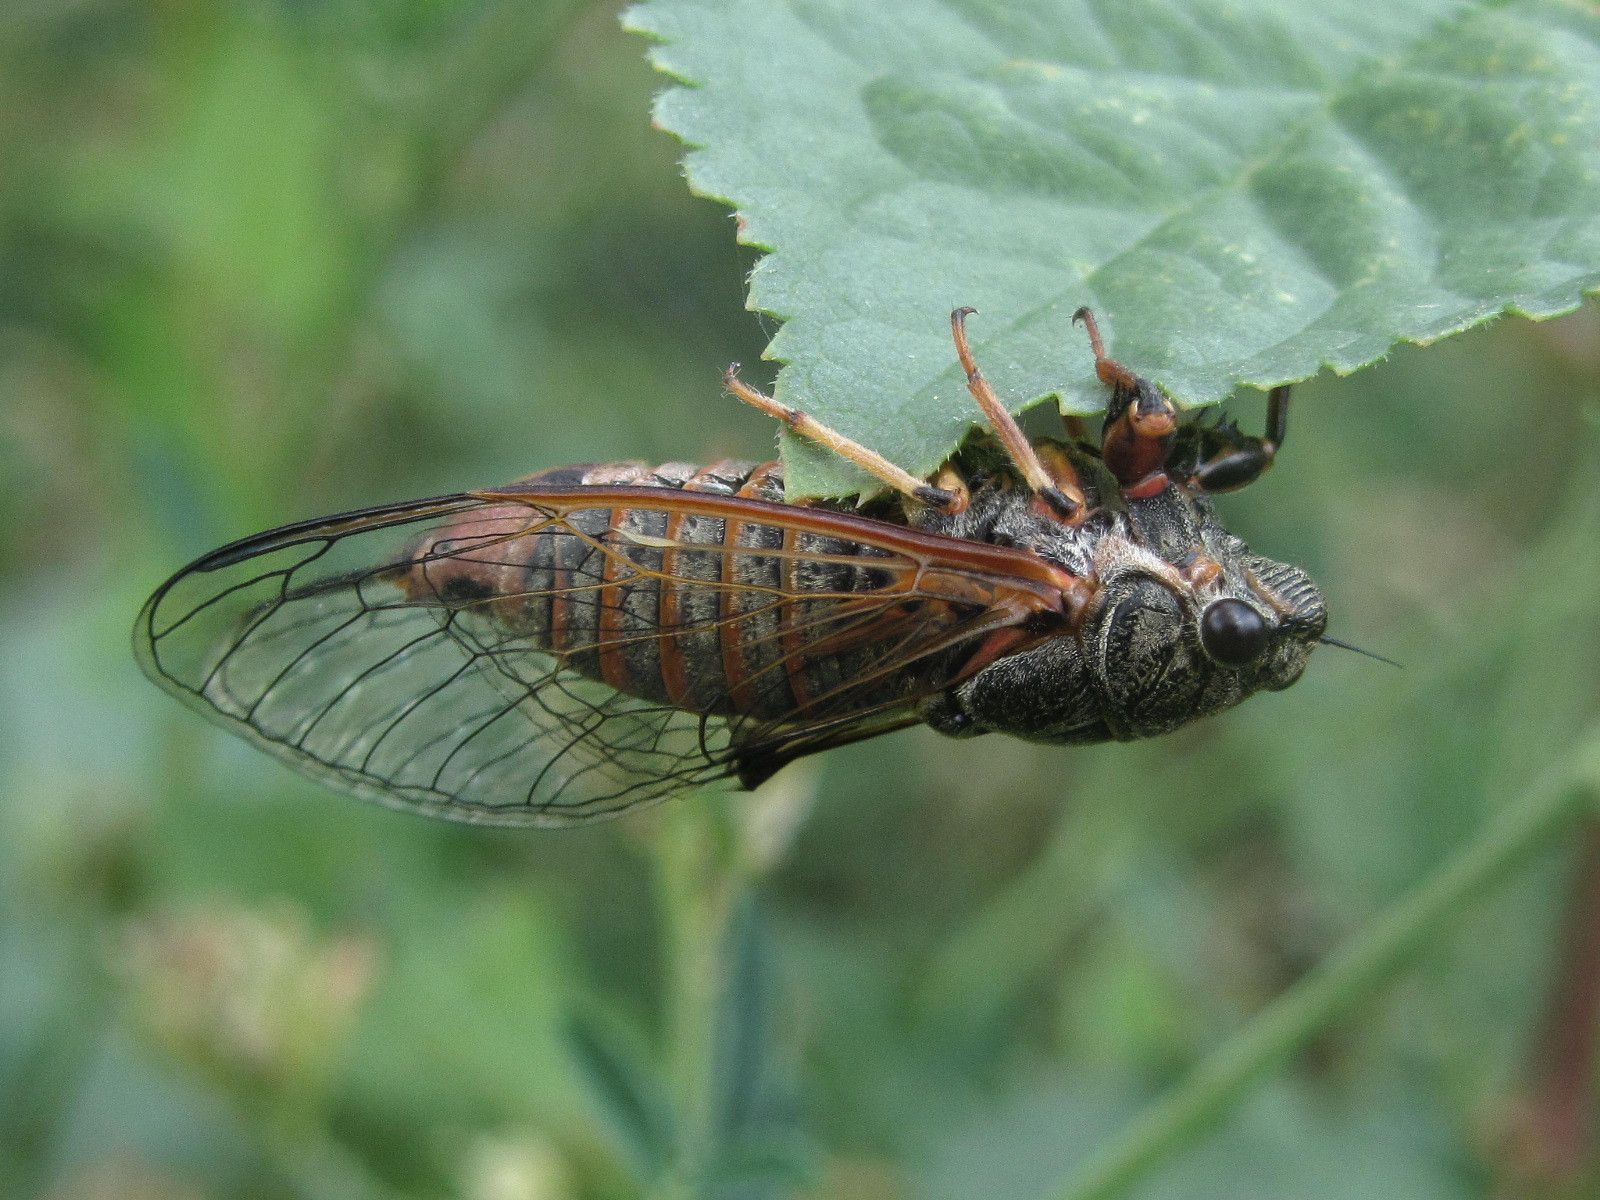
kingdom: Animalia
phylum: Arthropoda
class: Insecta
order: Hemiptera
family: Cicadidae
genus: Cicadetta
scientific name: Cicadetta montana
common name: New forest cicada
